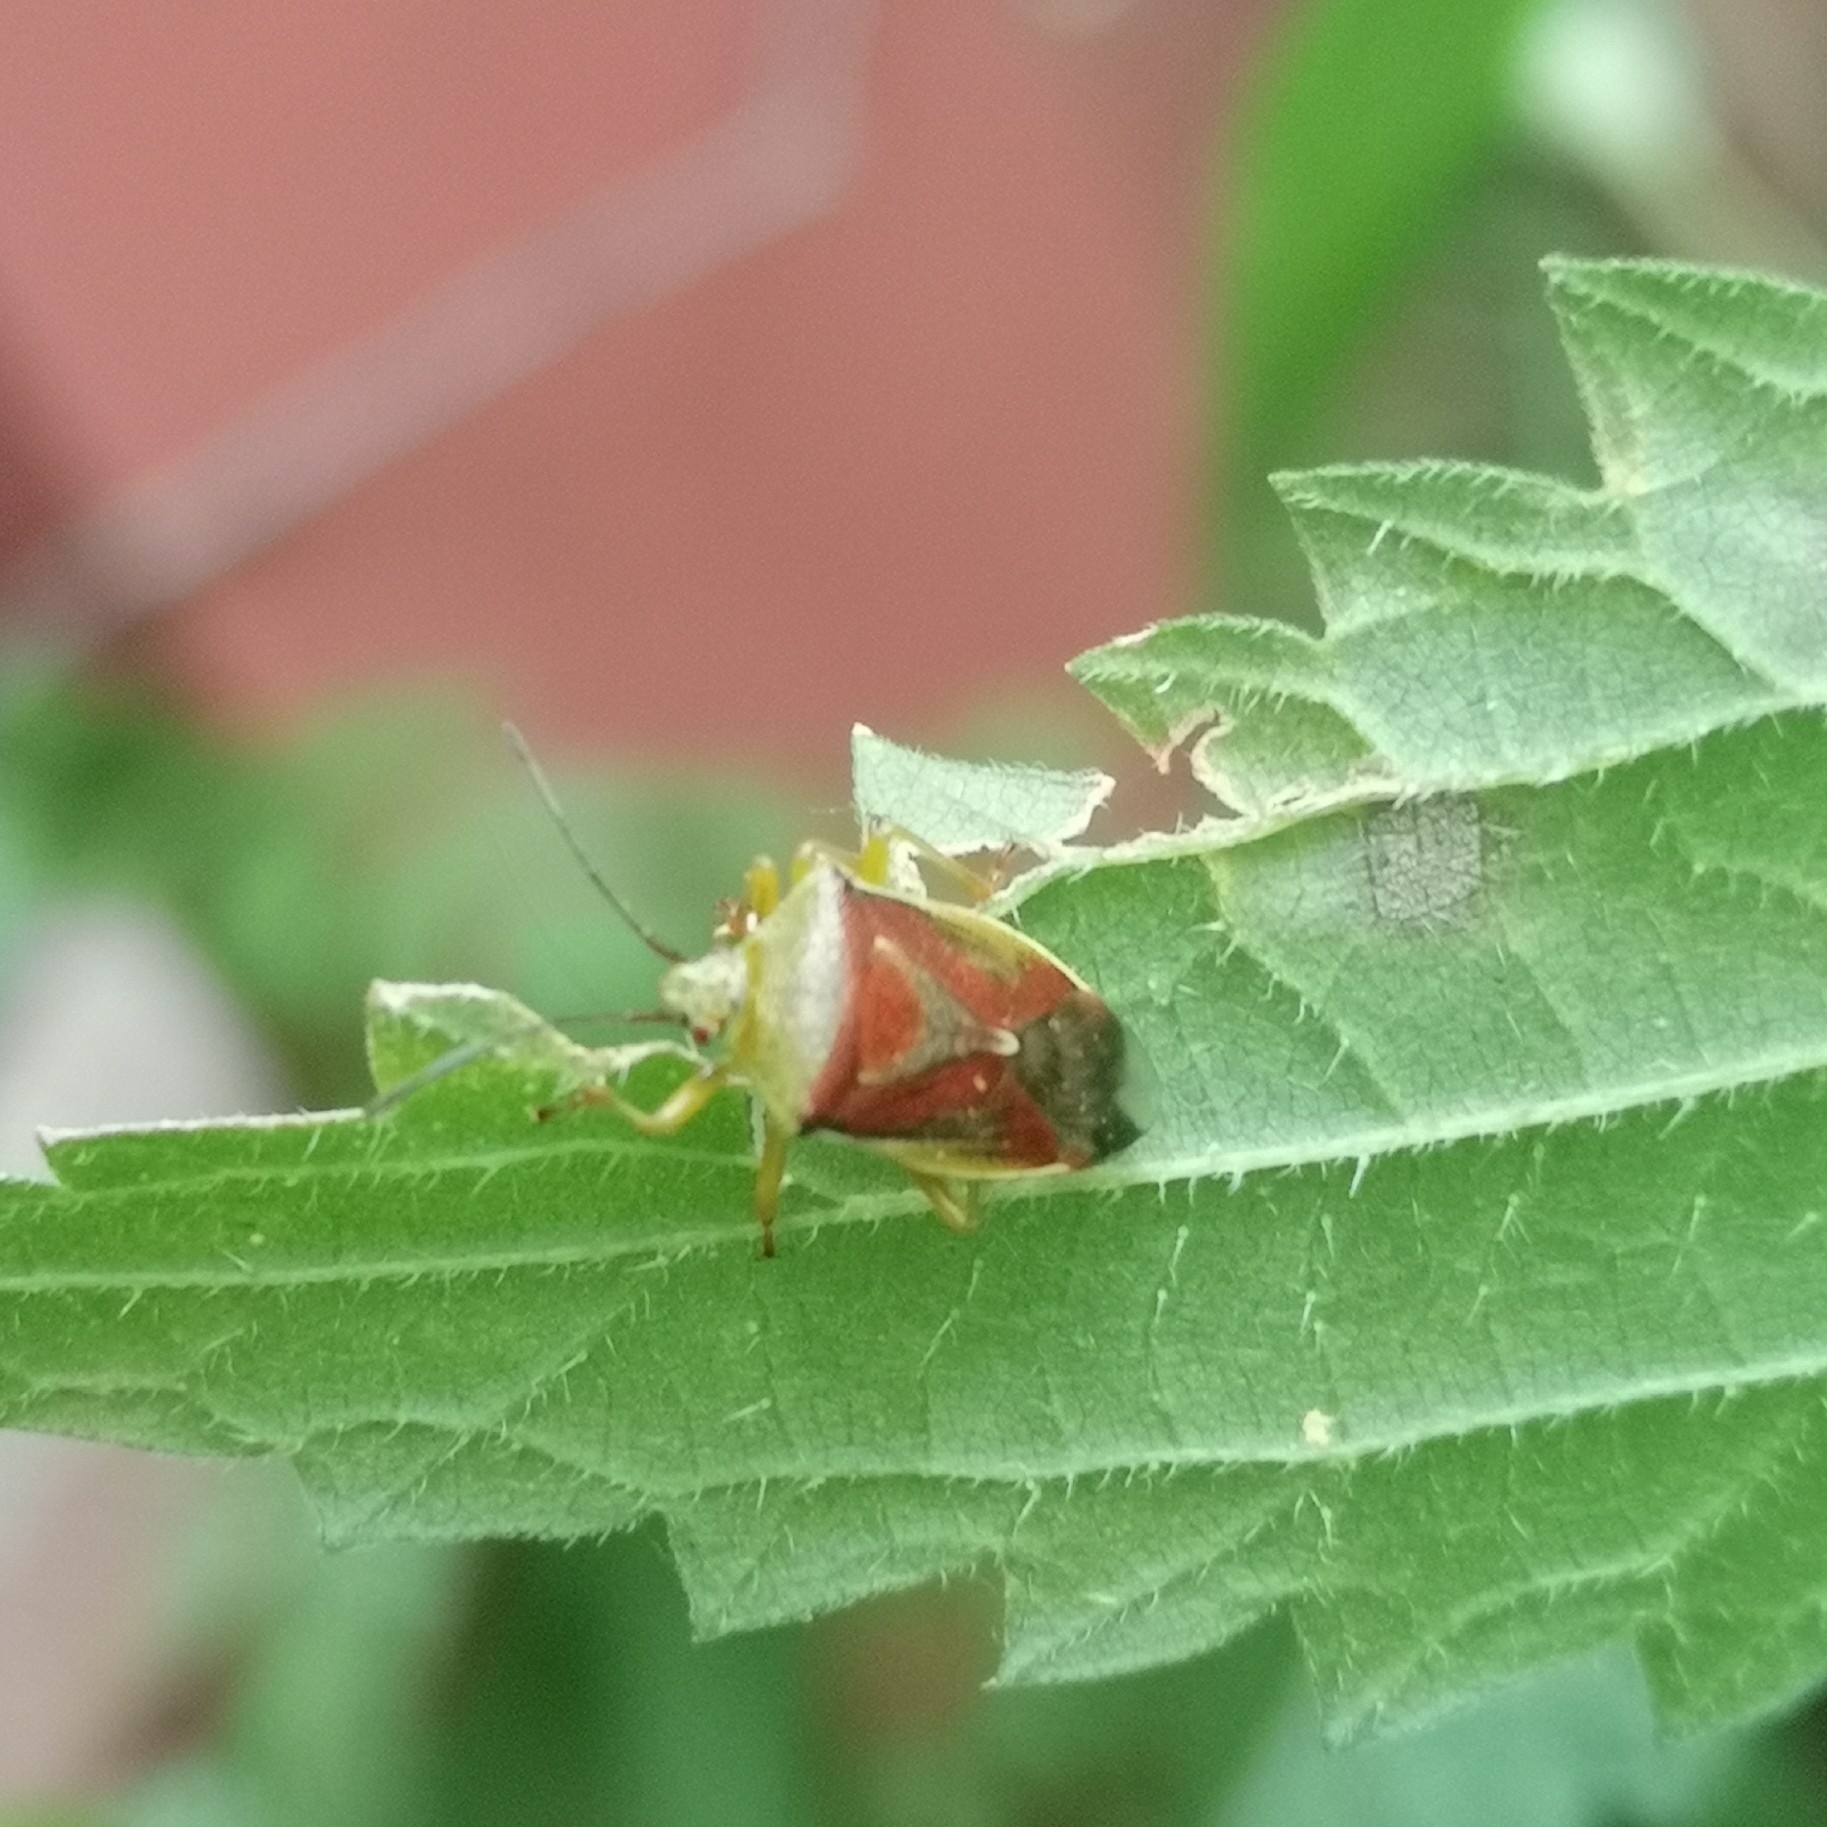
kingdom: Animalia
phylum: Arthropoda
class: Insecta
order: Hemiptera
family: Acanthosomatidae
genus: Elasmostethus
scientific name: Elasmostethus interstinctus
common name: Birch shieldbug
